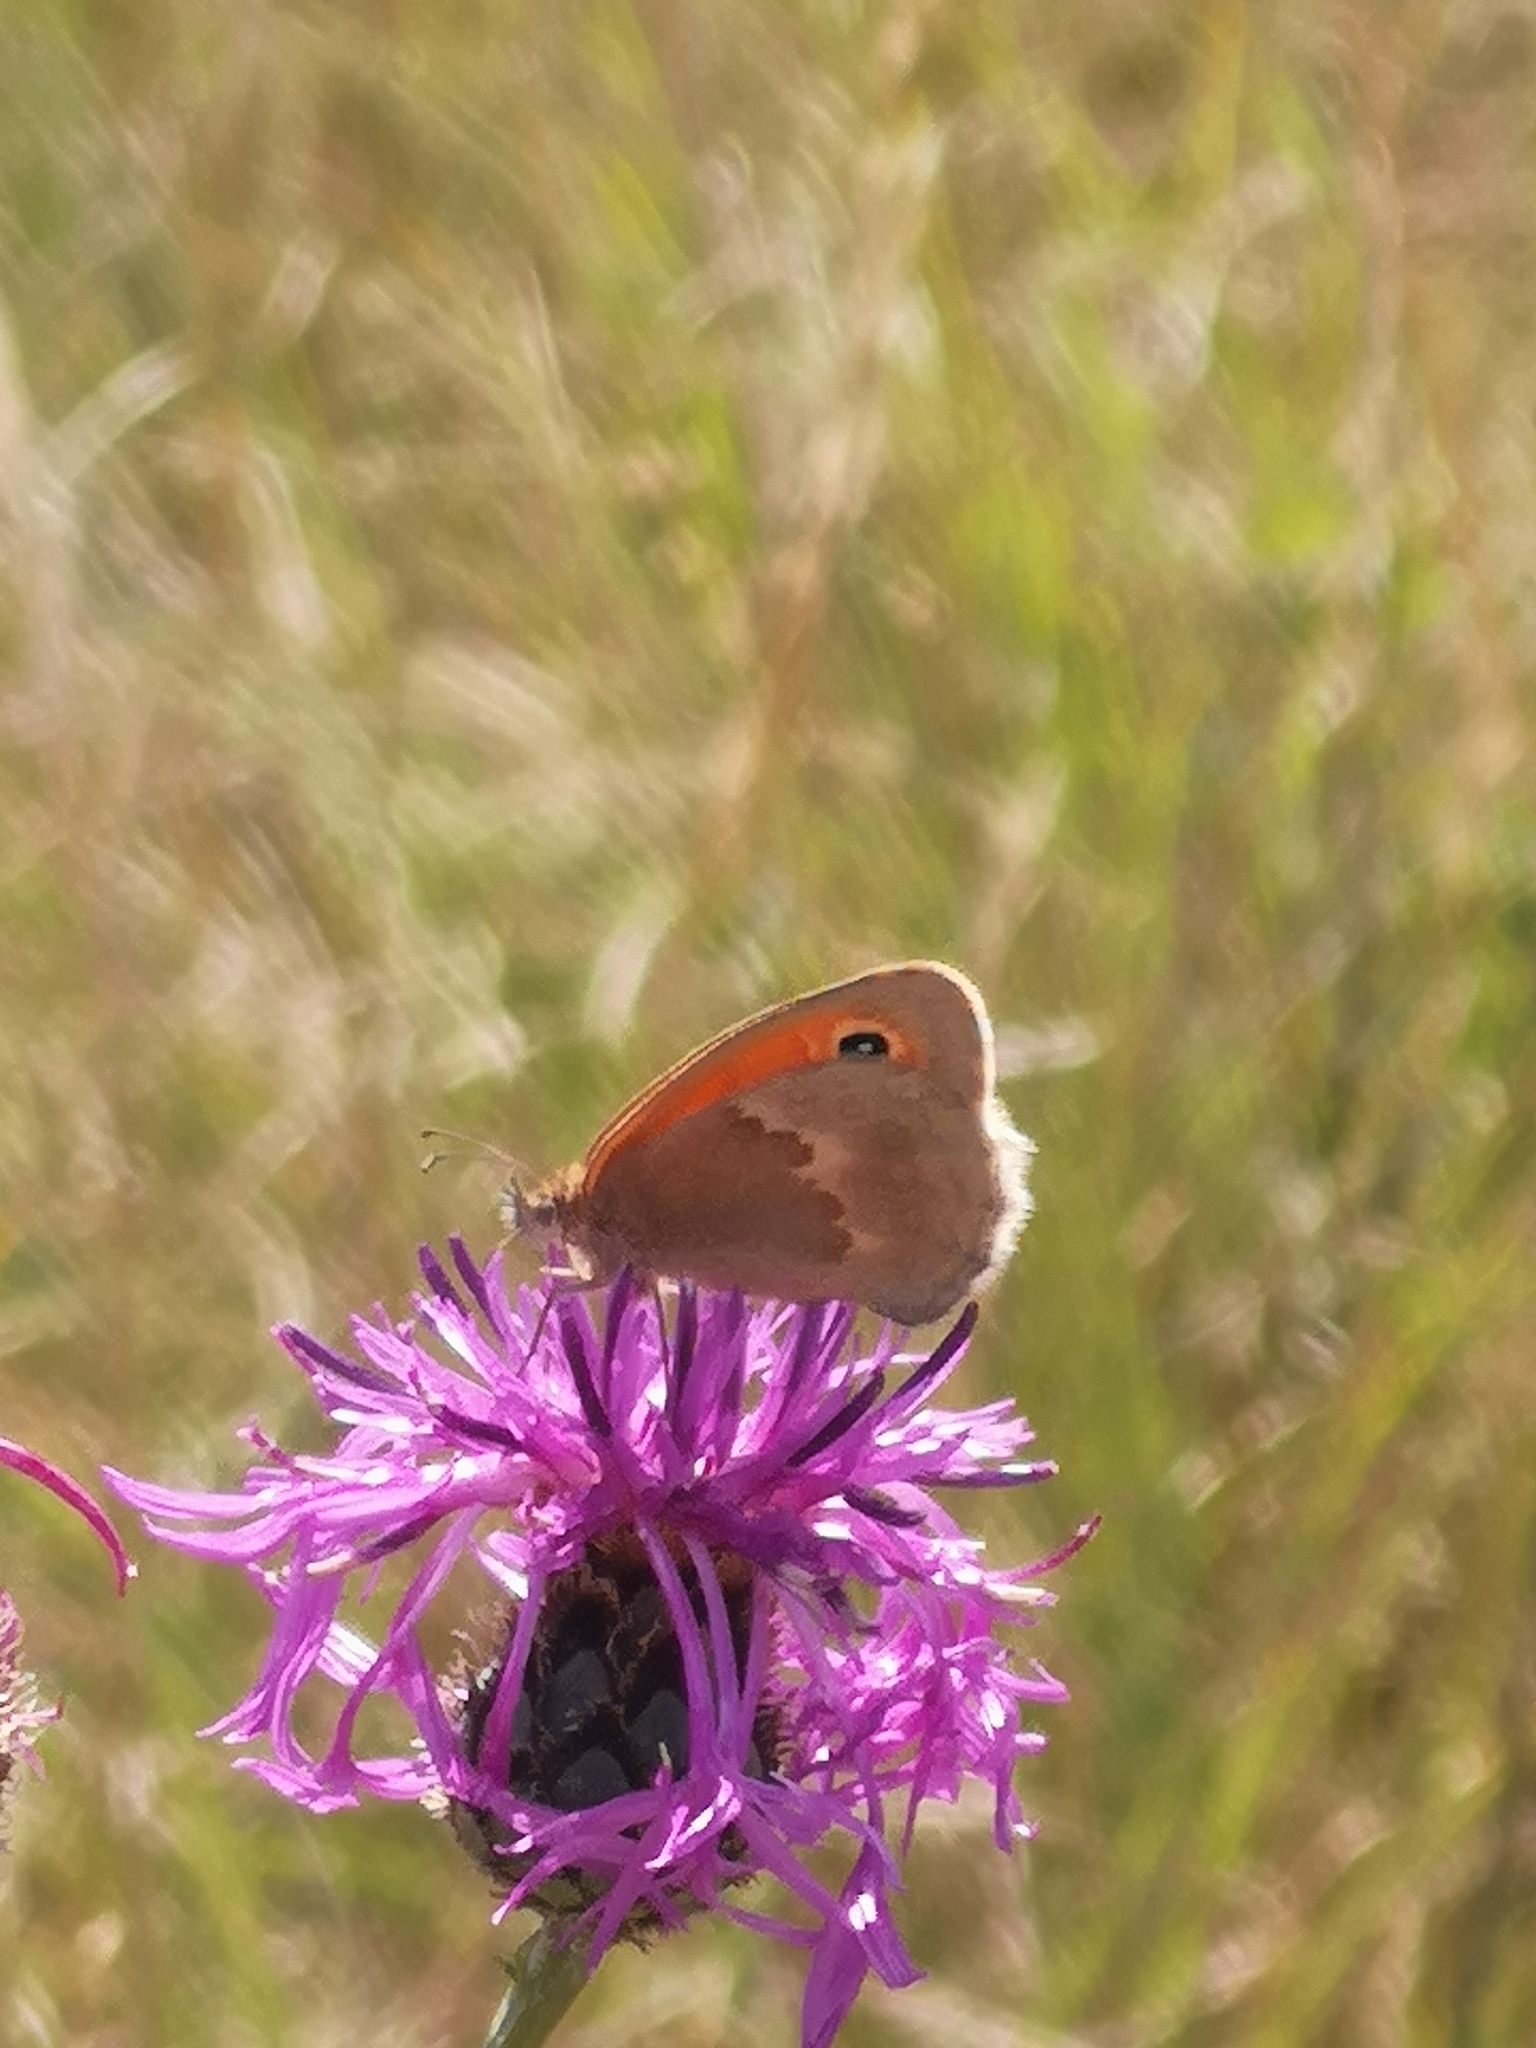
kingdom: Animalia
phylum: Arthropoda
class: Insecta
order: Lepidoptera
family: Nymphalidae
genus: Coenonympha
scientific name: Coenonympha pamphilus
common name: Small heath
